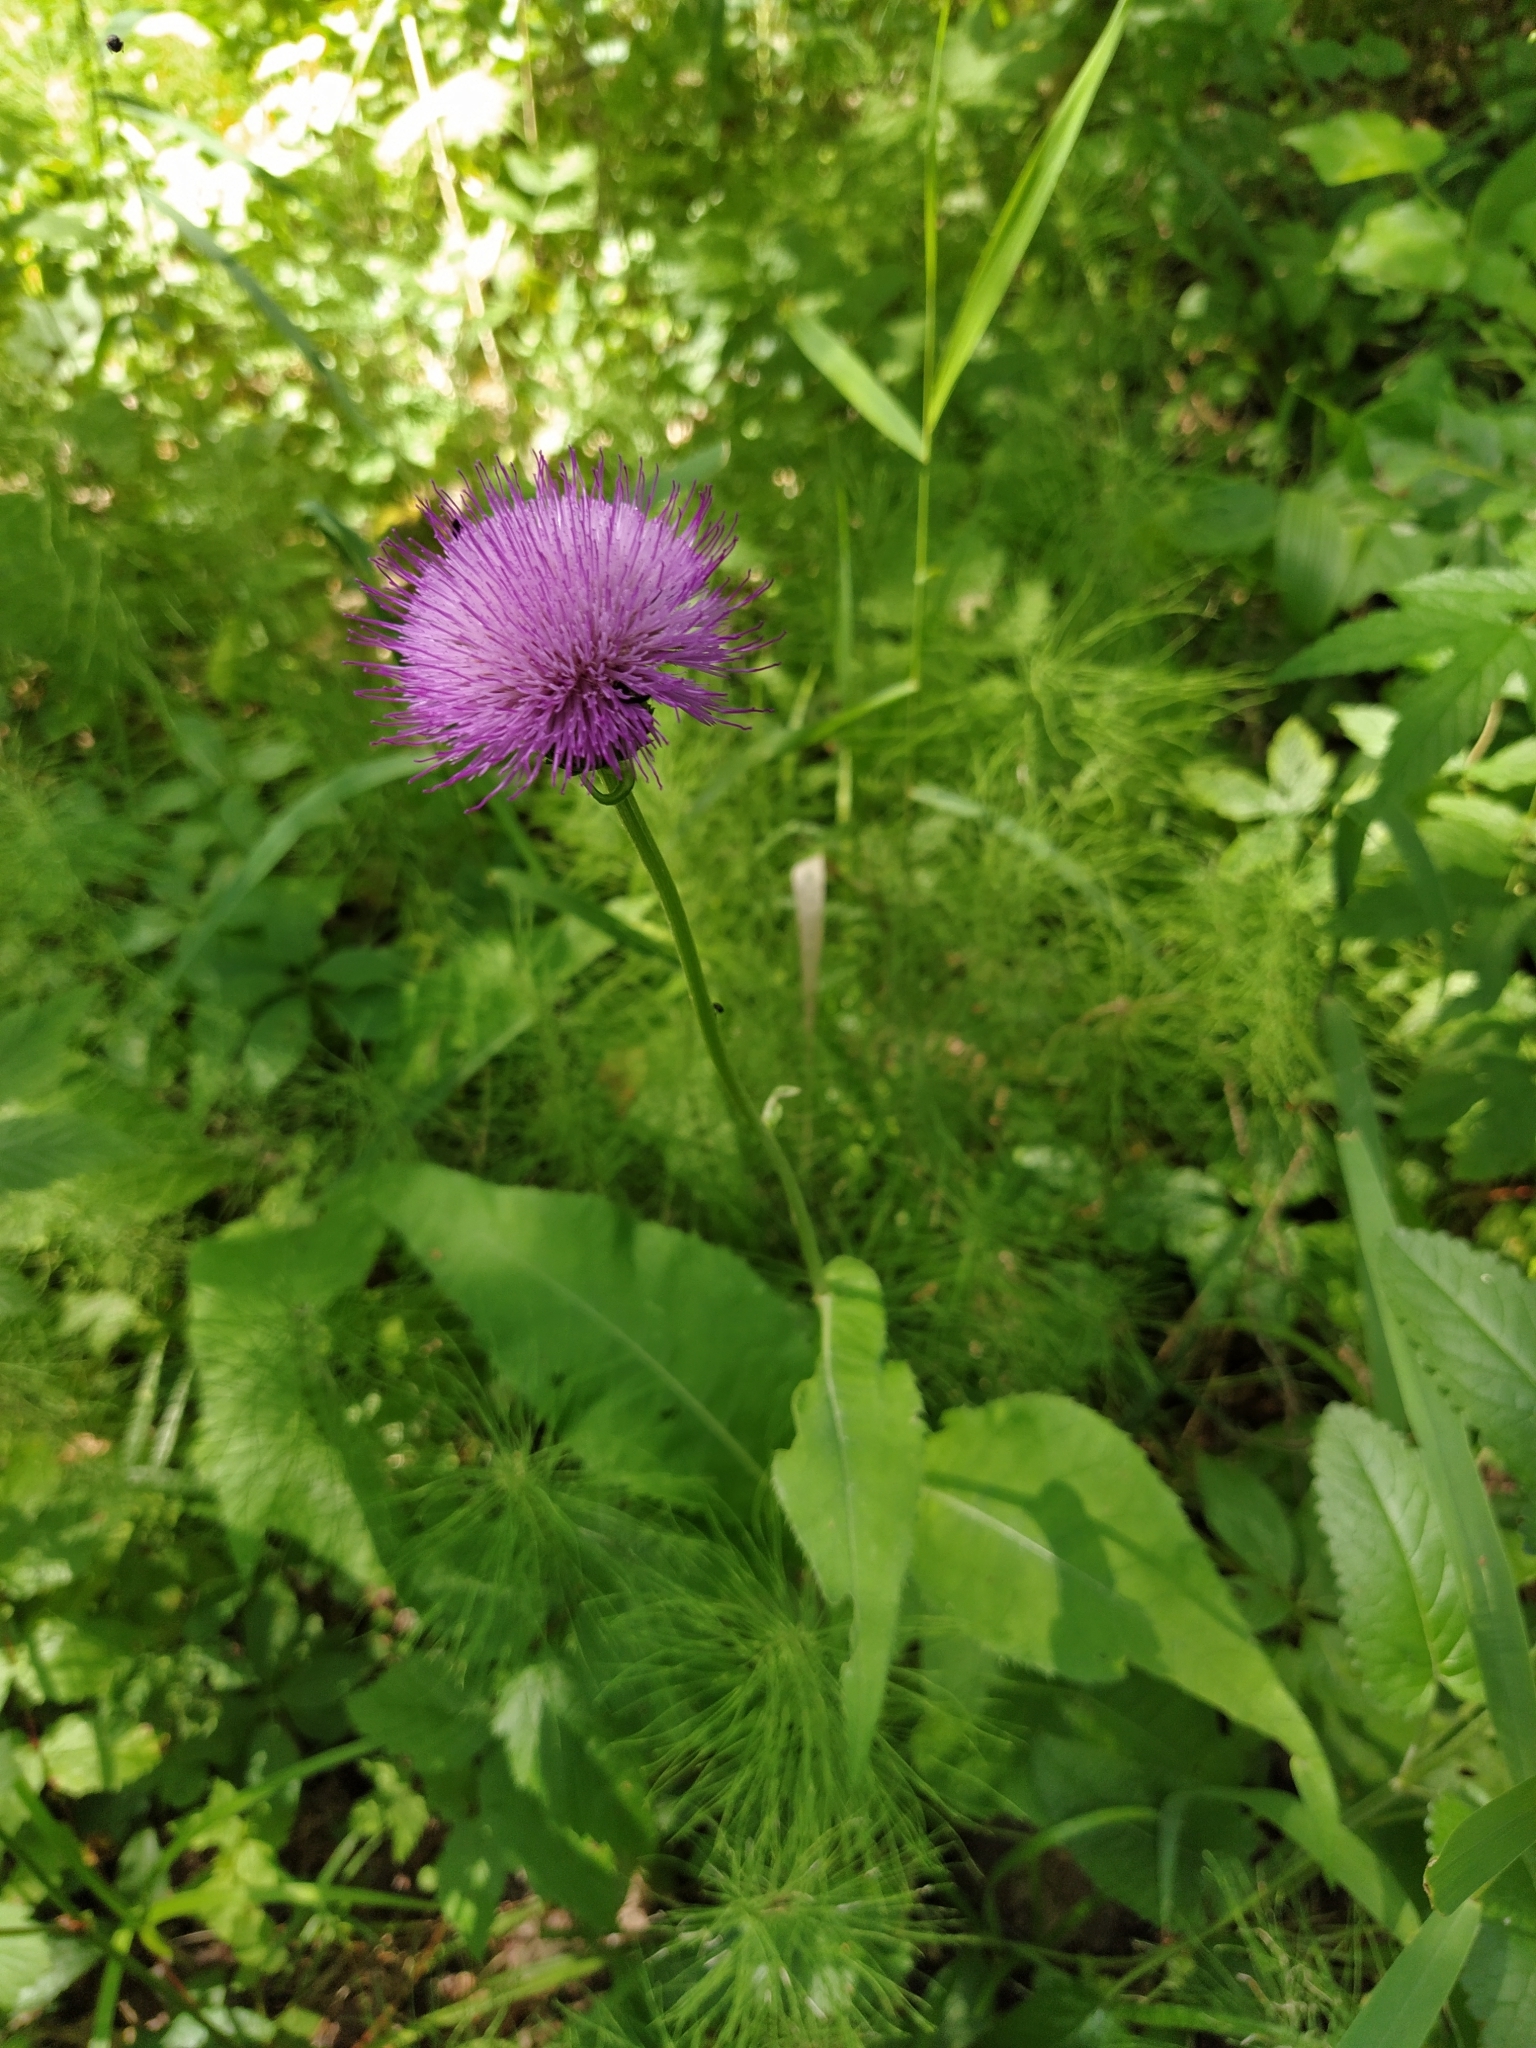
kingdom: Plantae
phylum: Tracheophyta
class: Magnoliopsida
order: Asterales
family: Asteraceae
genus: Cirsium
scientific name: Cirsium heterophyllum
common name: Melancholy thistle
